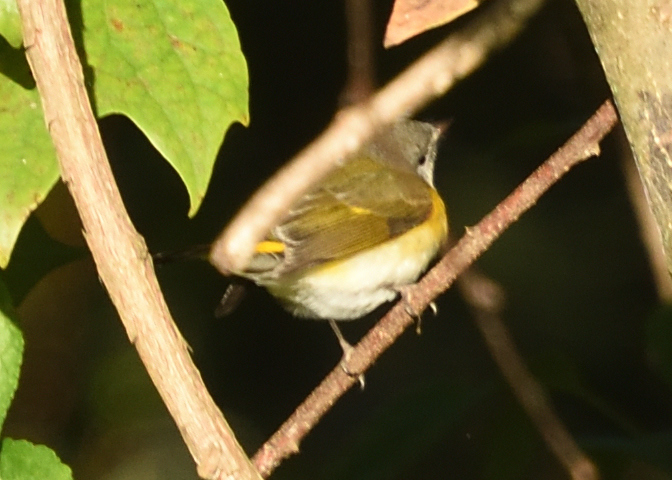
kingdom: Animalia
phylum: Chordata
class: Aves
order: Passeriformes
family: Parulidae
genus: Setophaga
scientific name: Setophaga ruticilla
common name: American redstart
